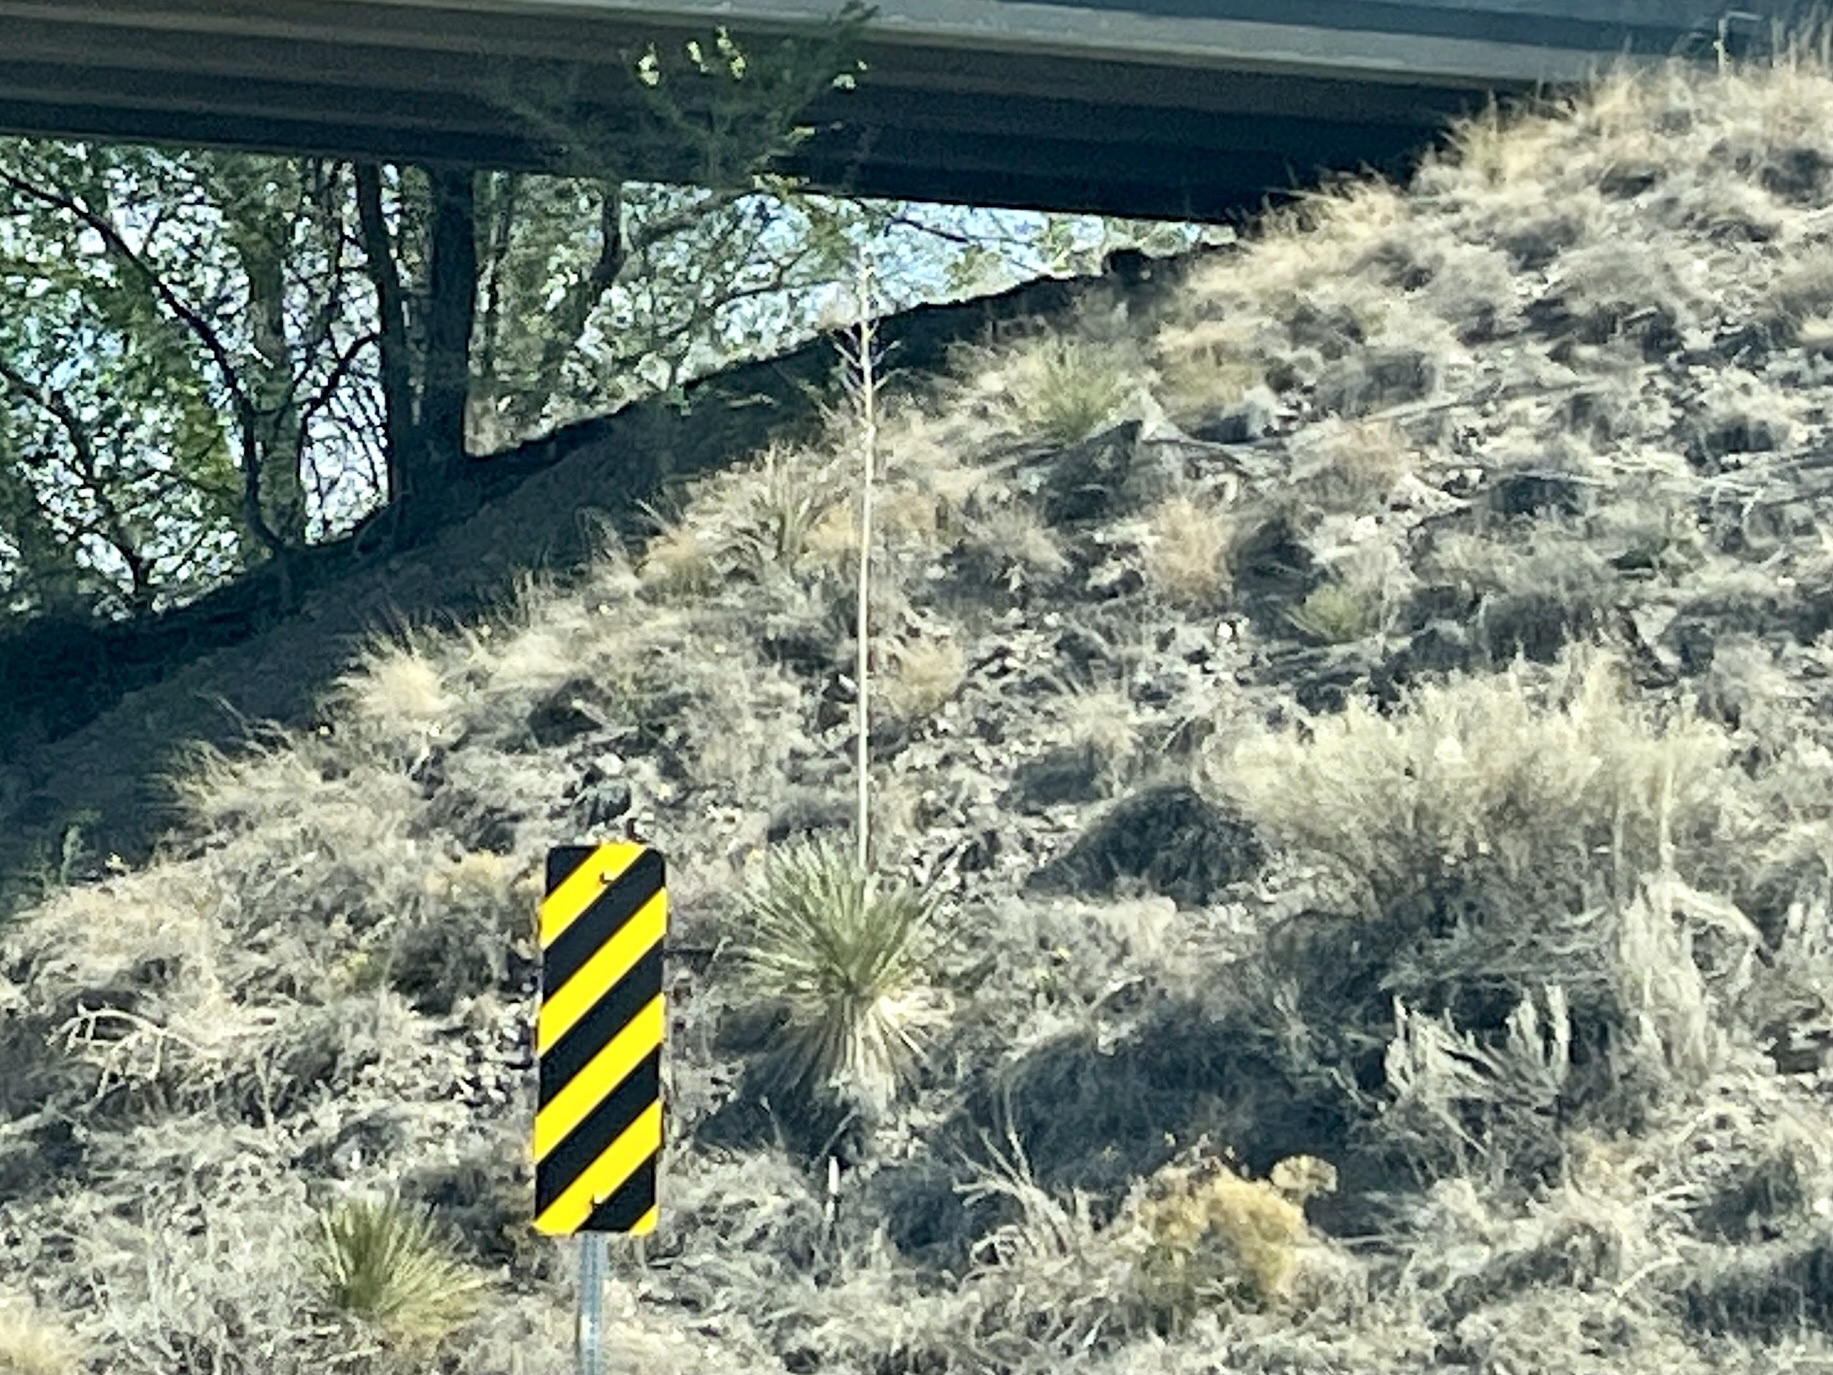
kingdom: Plantae
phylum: Tracheophyta
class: Liliopsida
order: Asparagales
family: Asparagaceae
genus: Yucca
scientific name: Yucca elata
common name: Palmella
